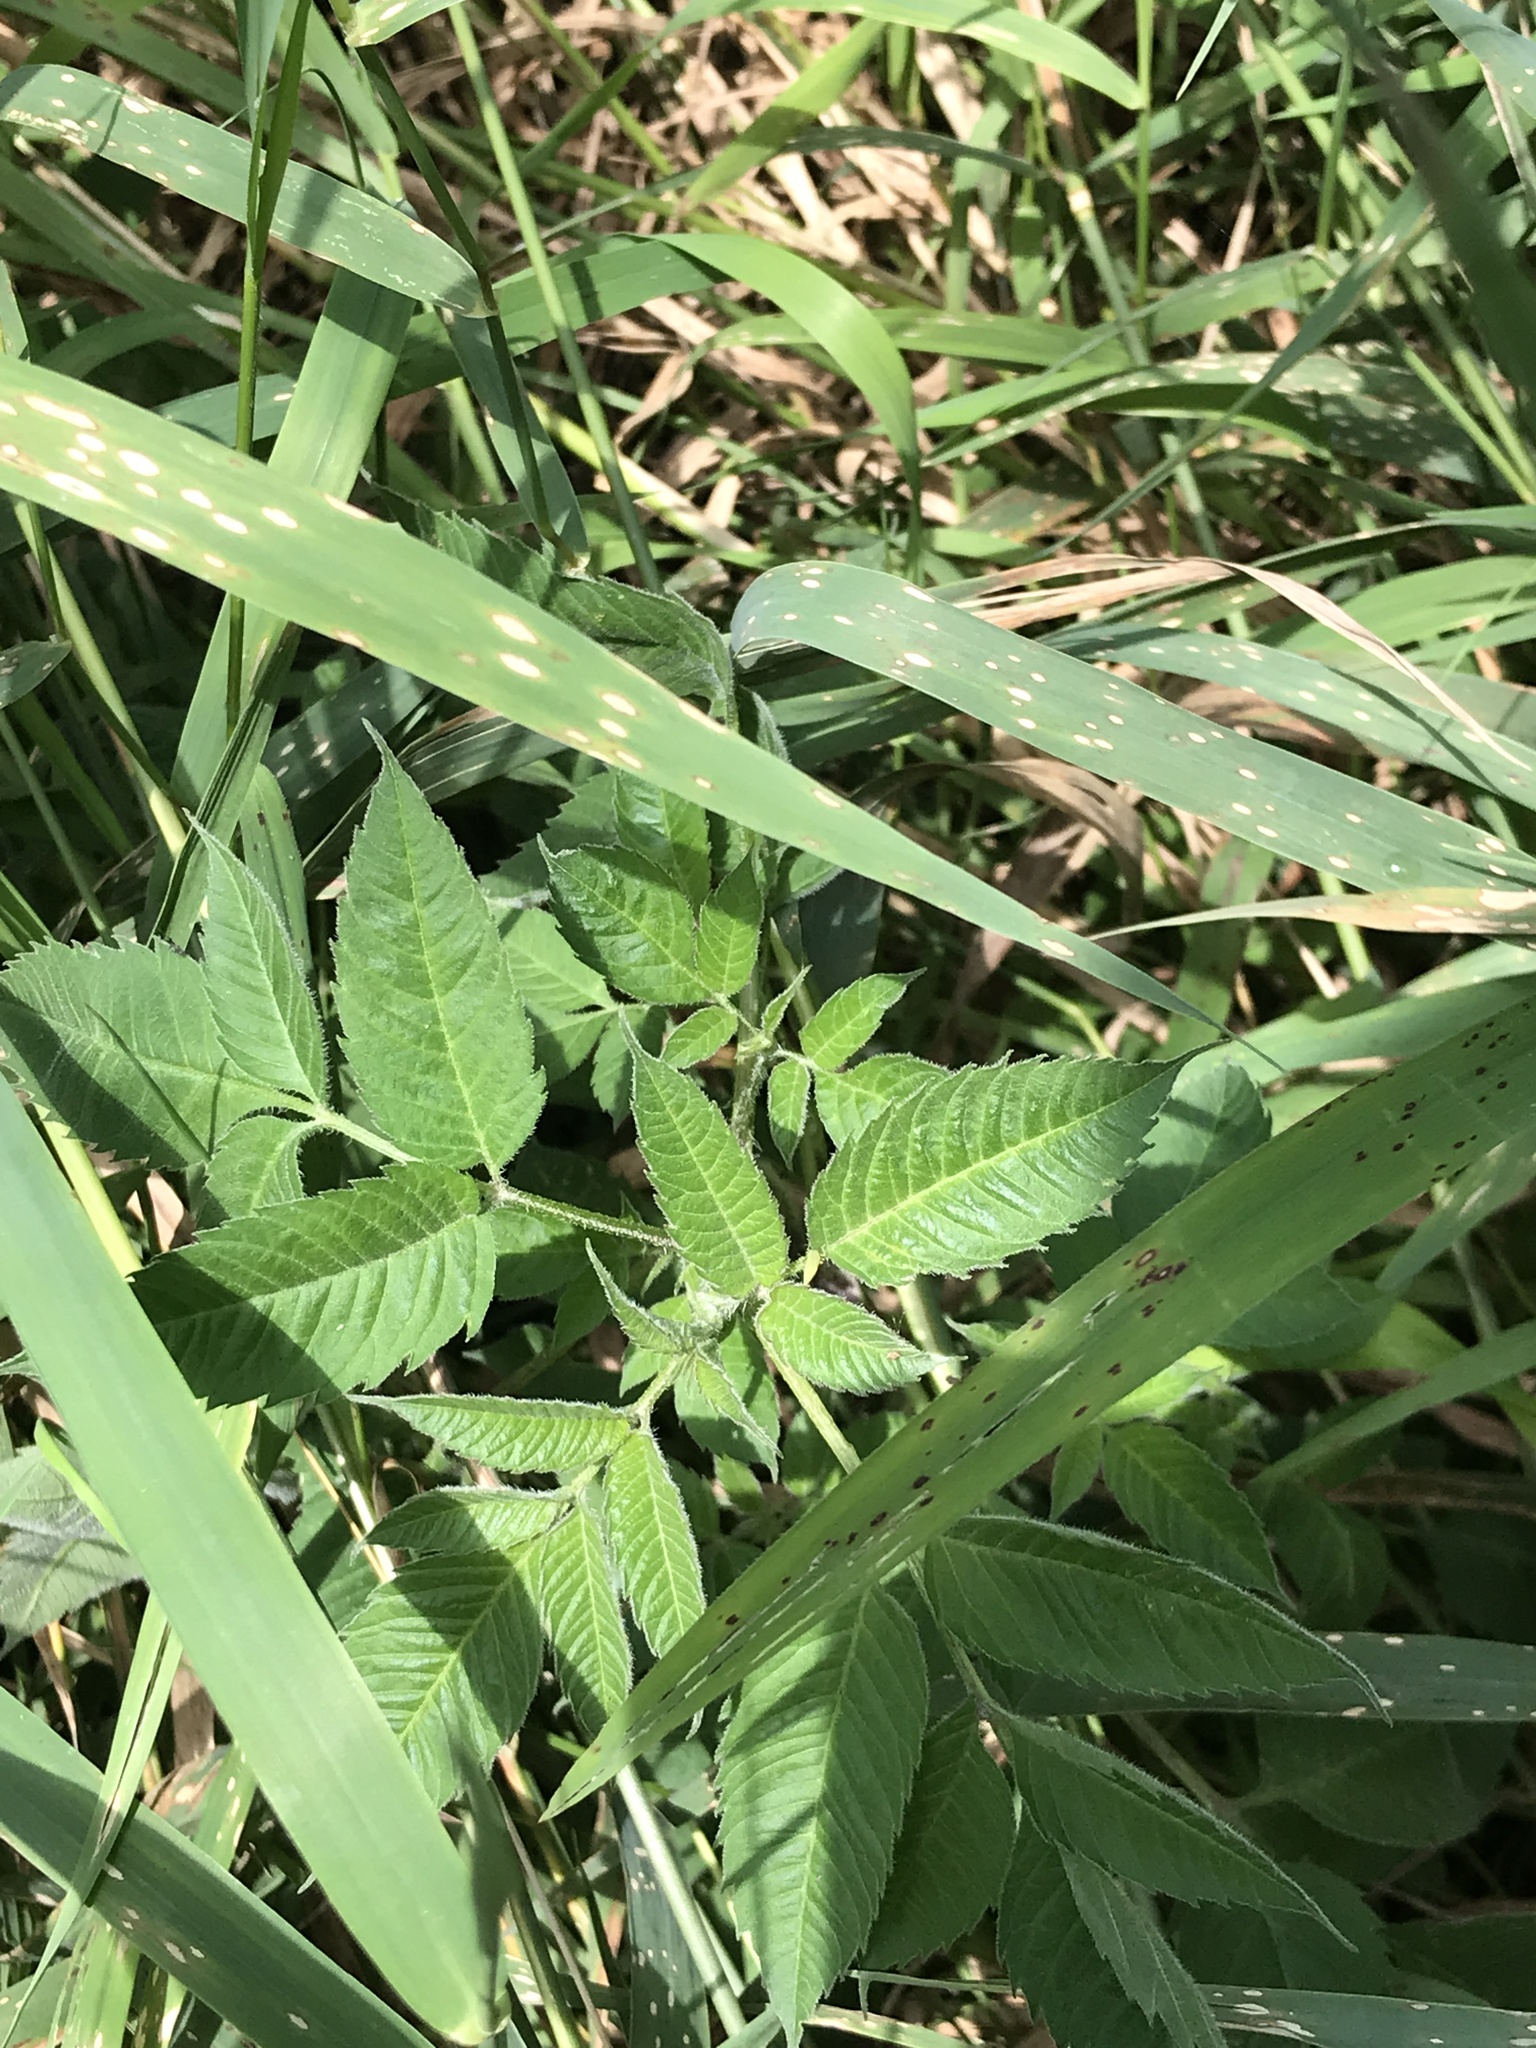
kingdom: Plantae
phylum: Tracheophyta
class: Magnoliopsida
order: Asterales
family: Asteraceae
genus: Bidens
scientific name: Bidens alba
